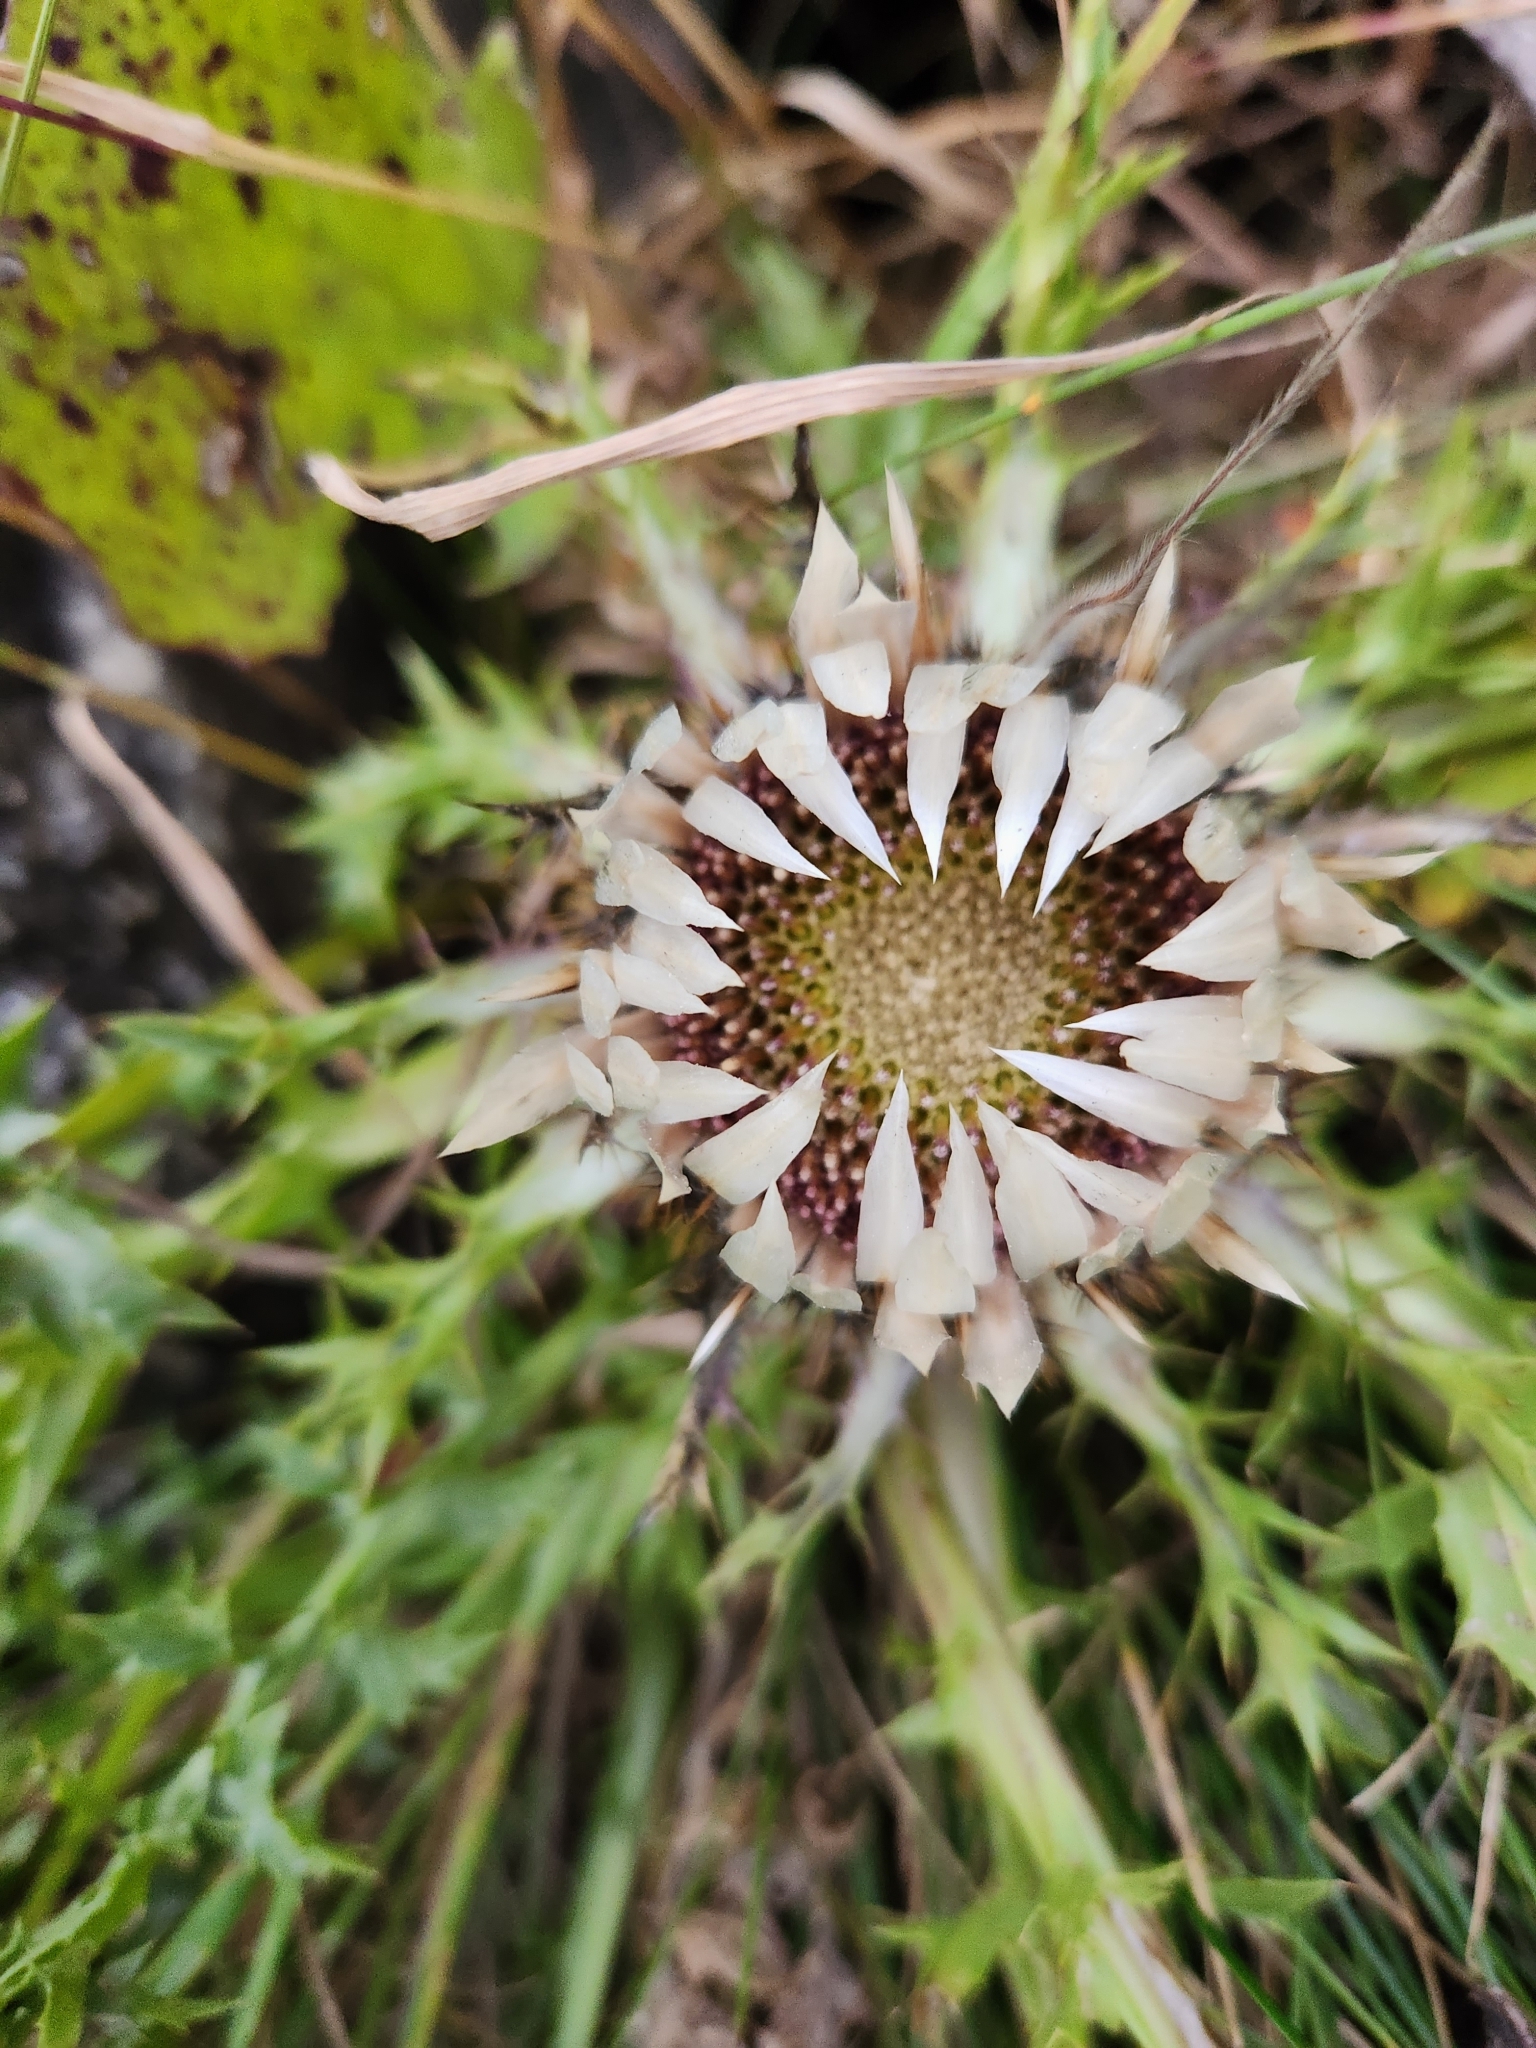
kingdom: Plantae
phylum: Tracheophyta
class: Magnoliopsida
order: Asterales
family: Asteraceae
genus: Carlina
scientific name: Carlina acaulis
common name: Stemless carline thistle
